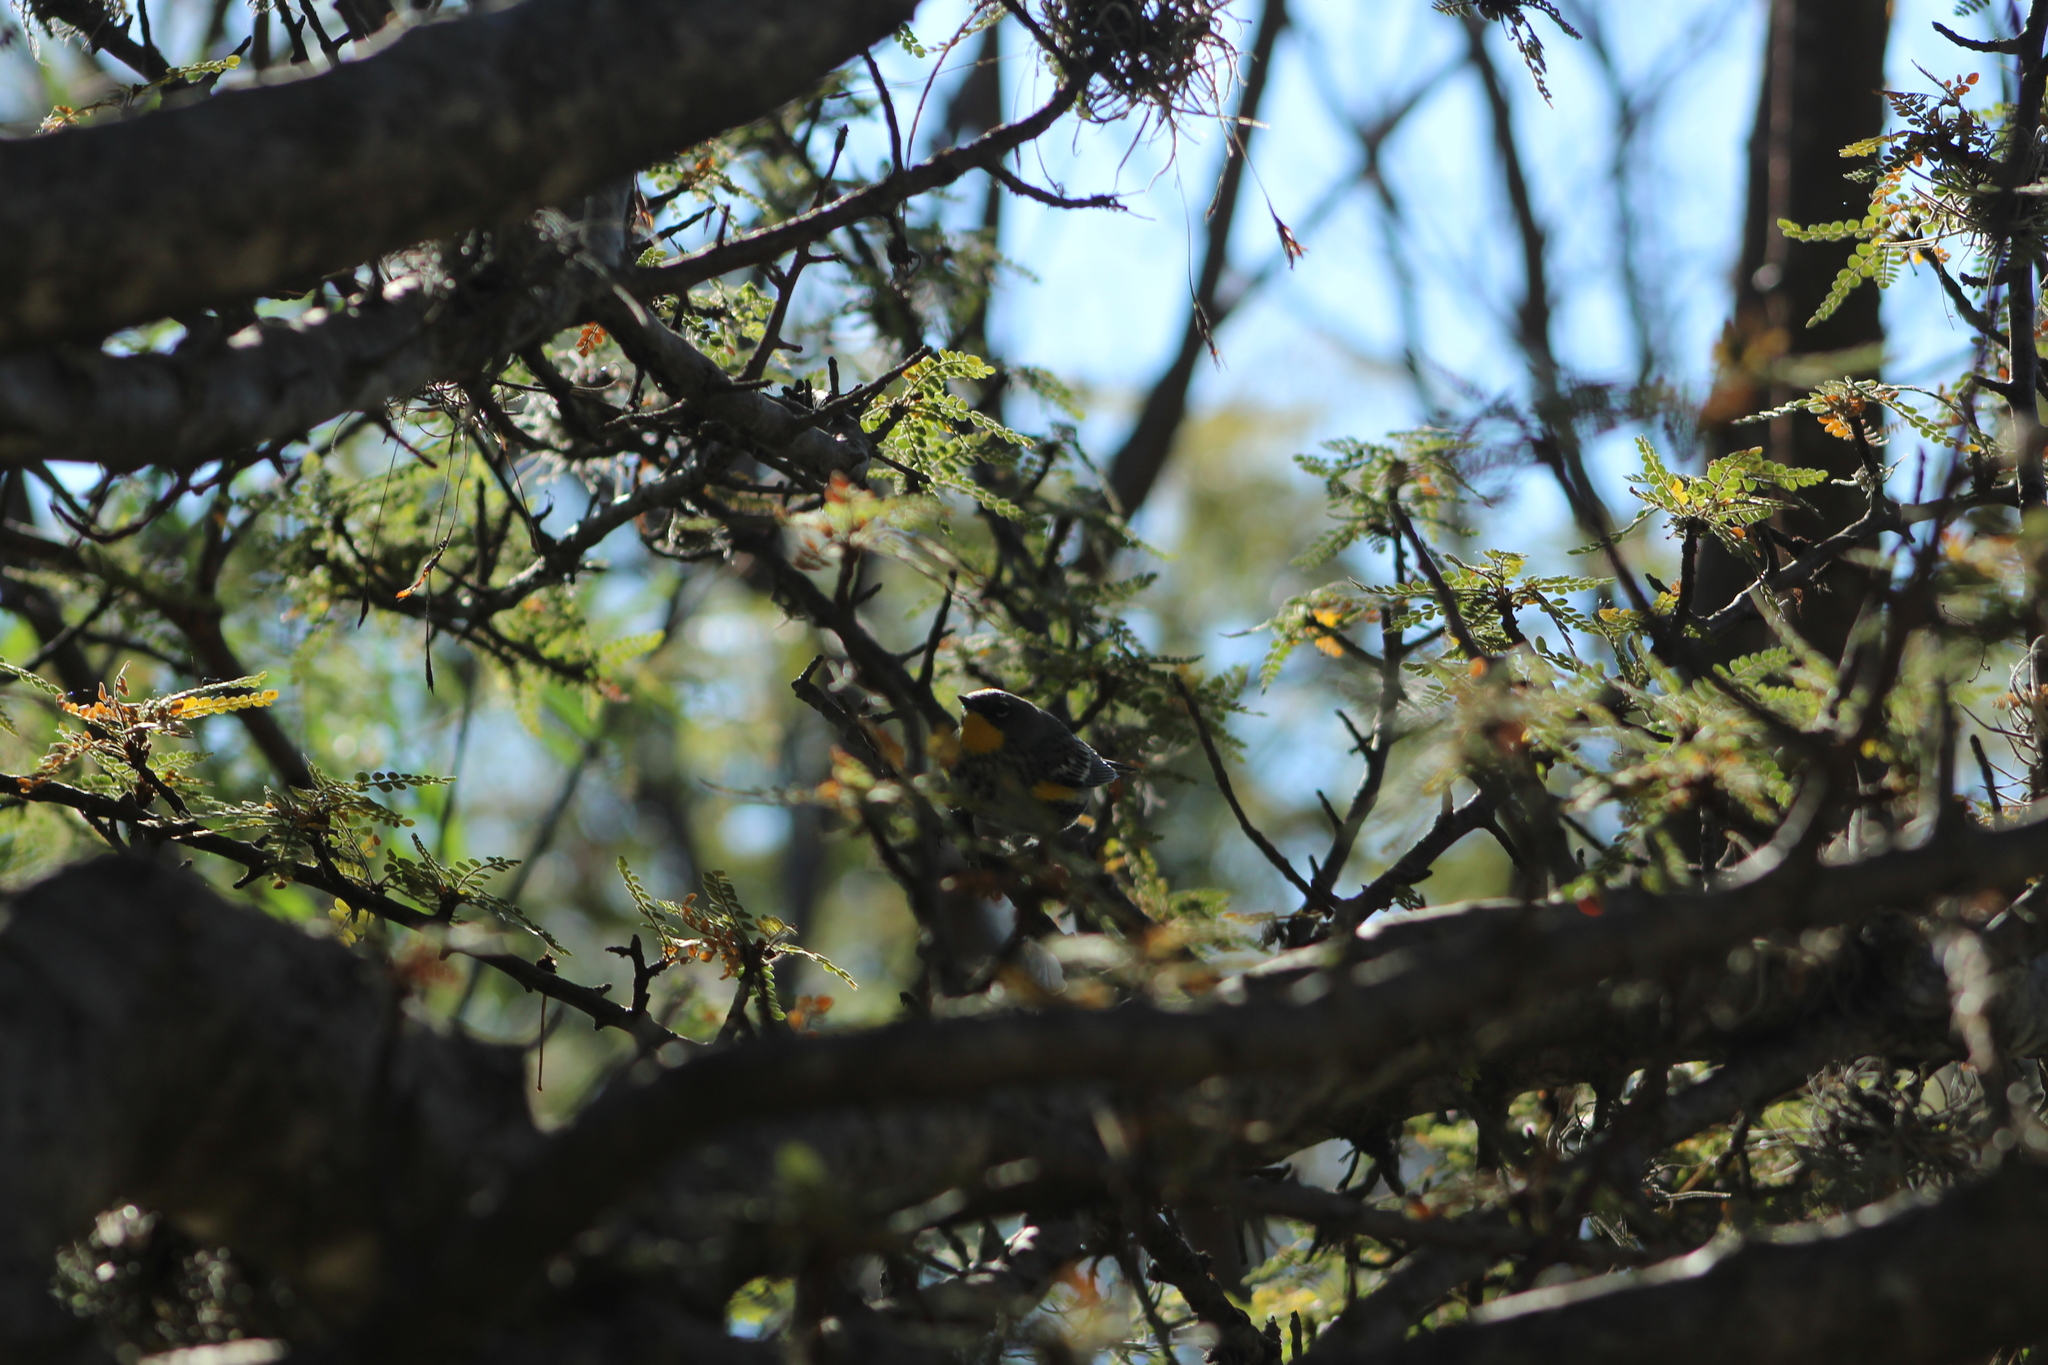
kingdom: Animalia
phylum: Chordata
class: Aves
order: Passeriformes
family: Parulidae
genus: Setophaga
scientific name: Setophaga auduboni
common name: Audubon's warbler
